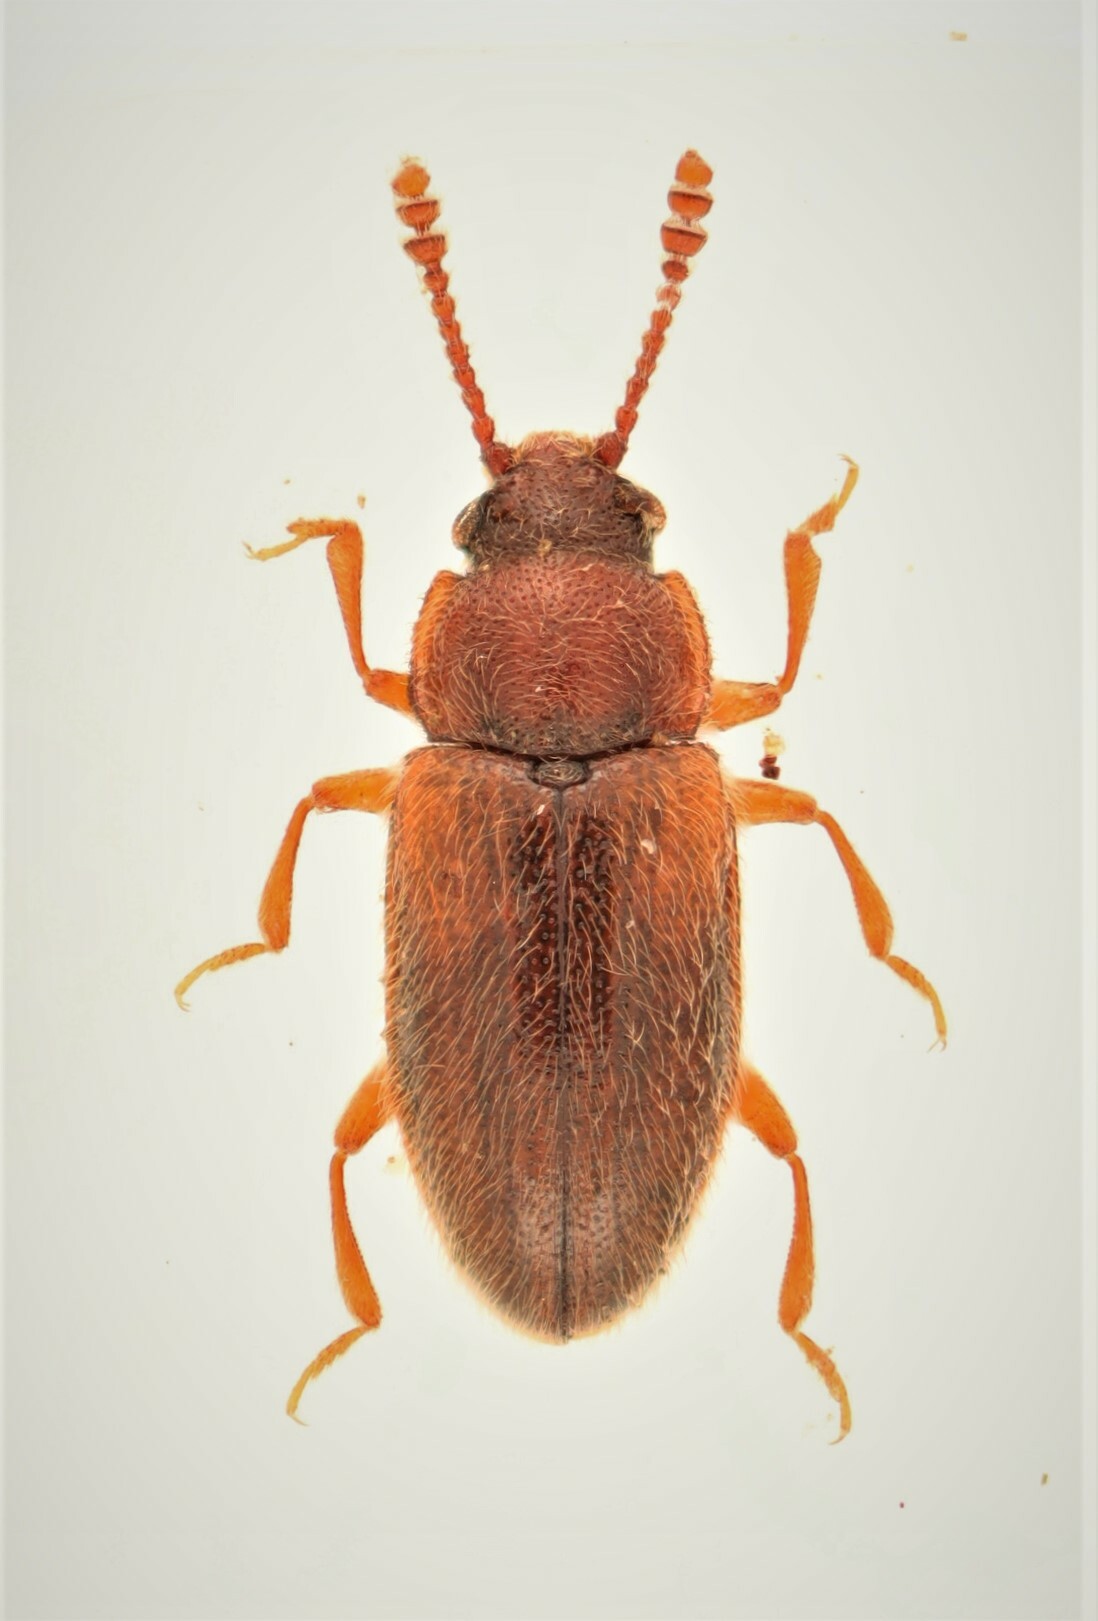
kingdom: Animalia
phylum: Arthropoda
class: Insecta
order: Coleoptera
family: Erotylidae
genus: Cryptophilus
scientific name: Cryptophilus obliteratus
